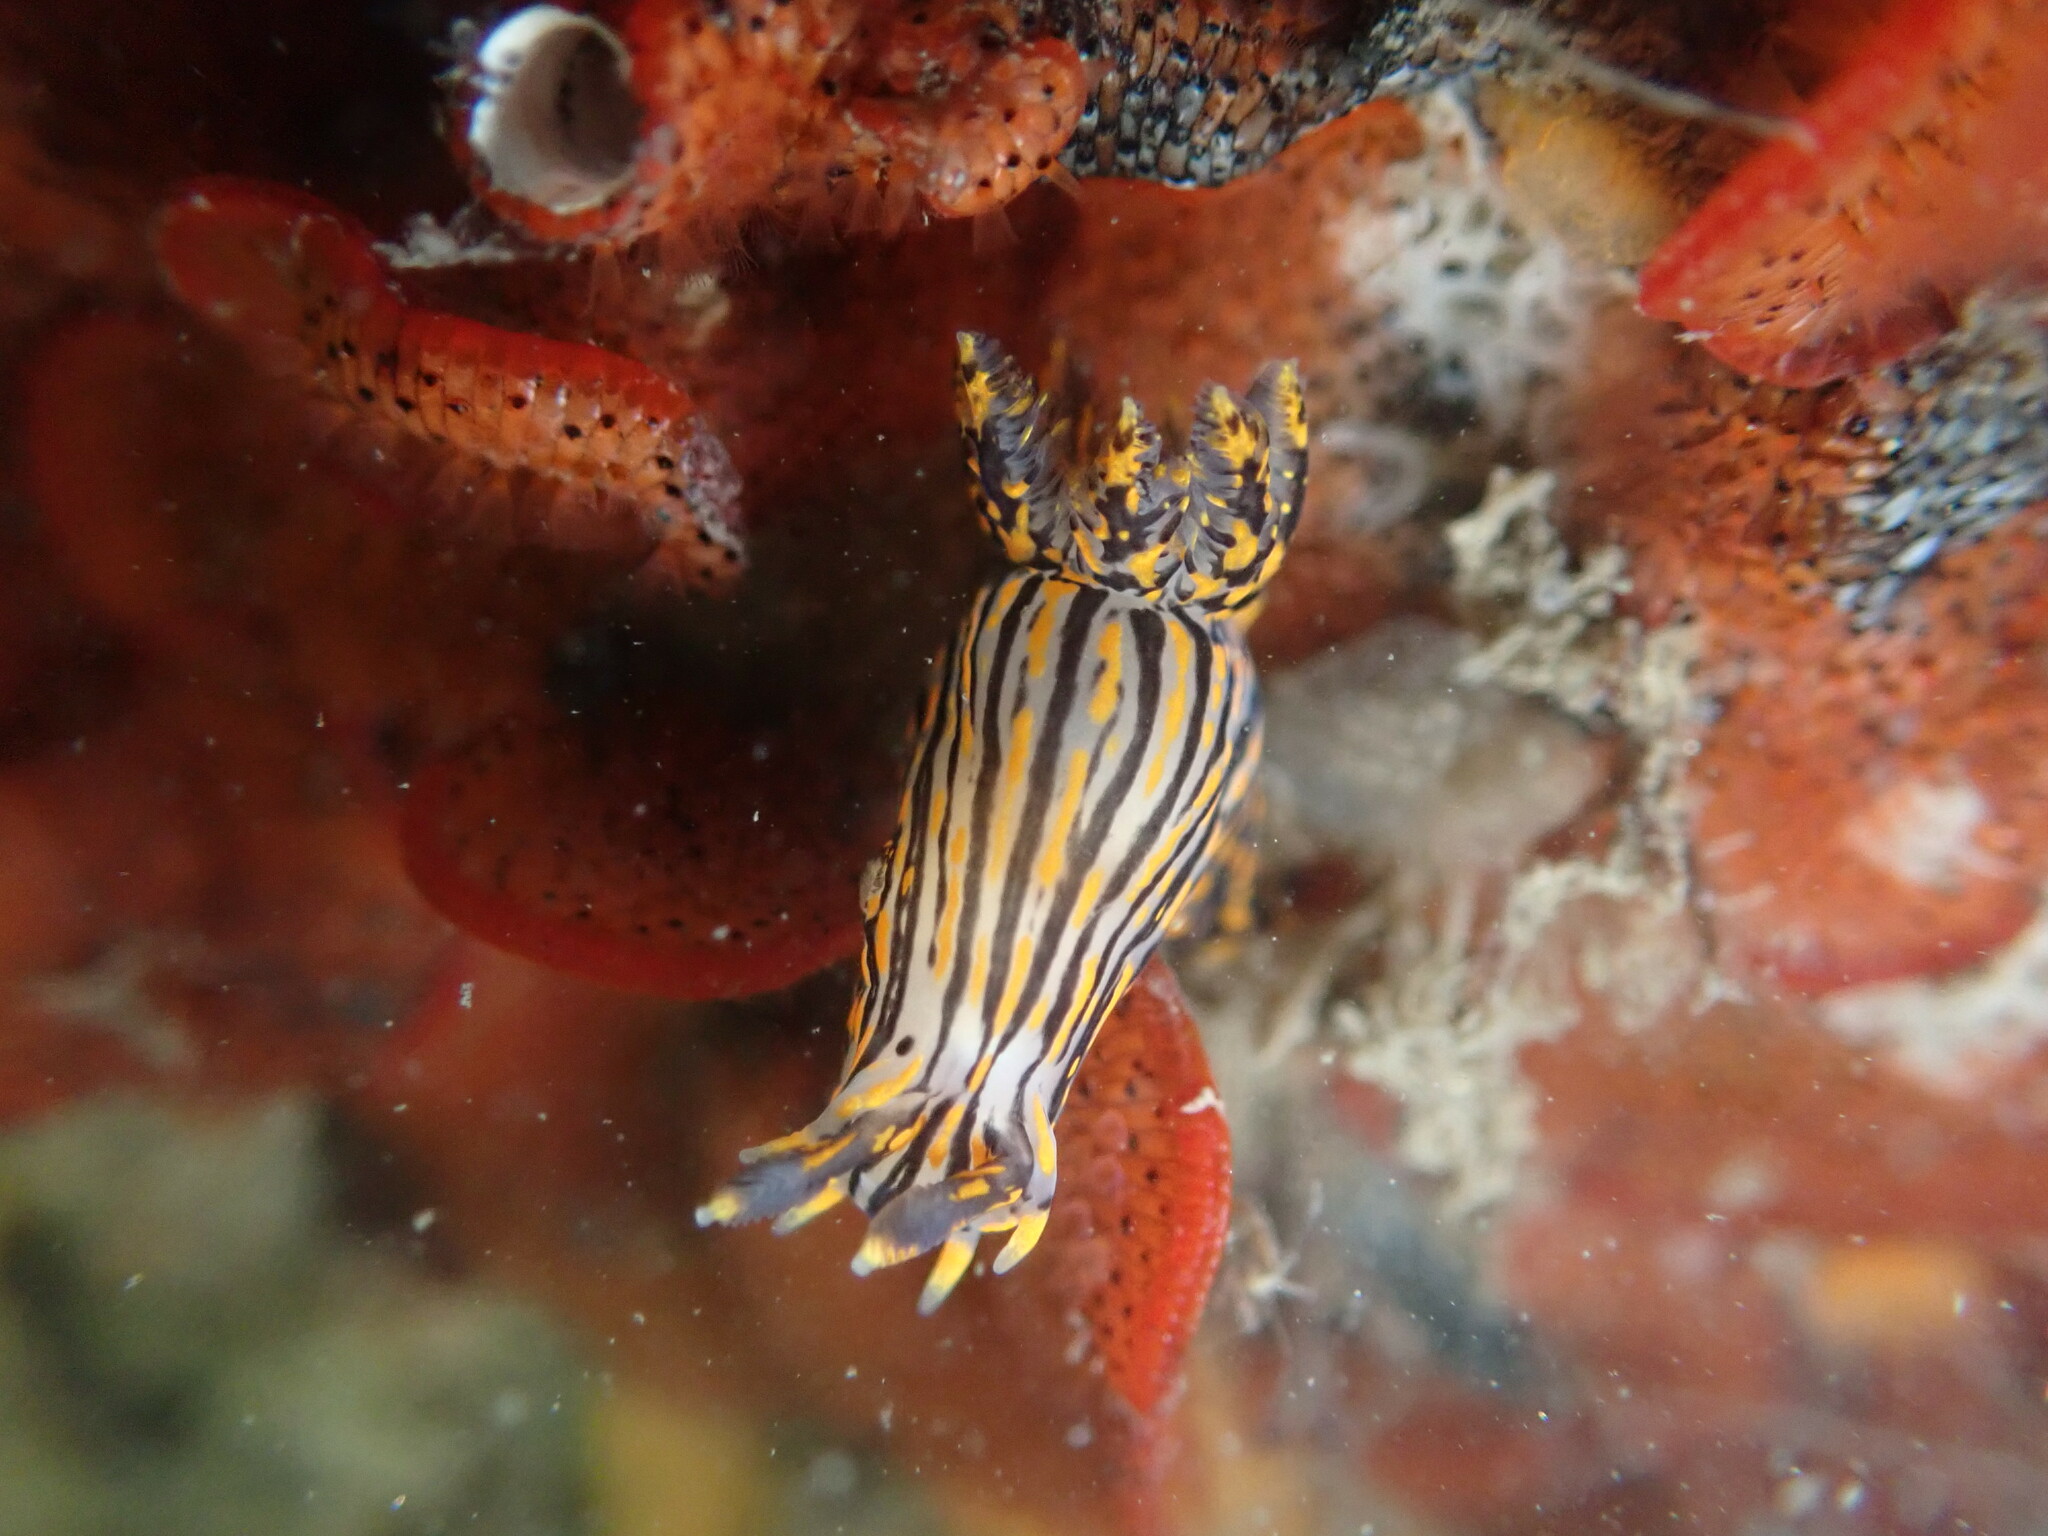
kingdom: Animalia
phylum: Mollusca
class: Gastropoda
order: Nudibranchia
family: Polyceridae
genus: Polycera
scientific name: Polycera atra
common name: Orange-spike polycera
